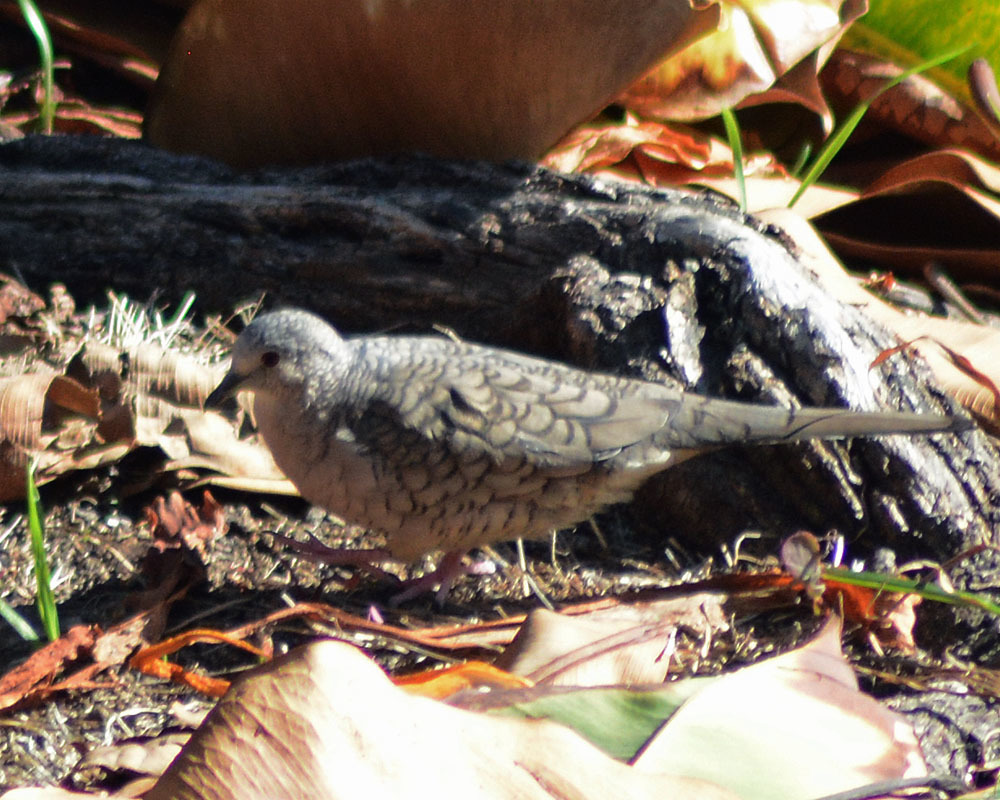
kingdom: Animalia
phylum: Chordata
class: Aves
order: Columbiformes
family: Columbidae
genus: Columbina
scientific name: Columbina inca
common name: Inca dove
